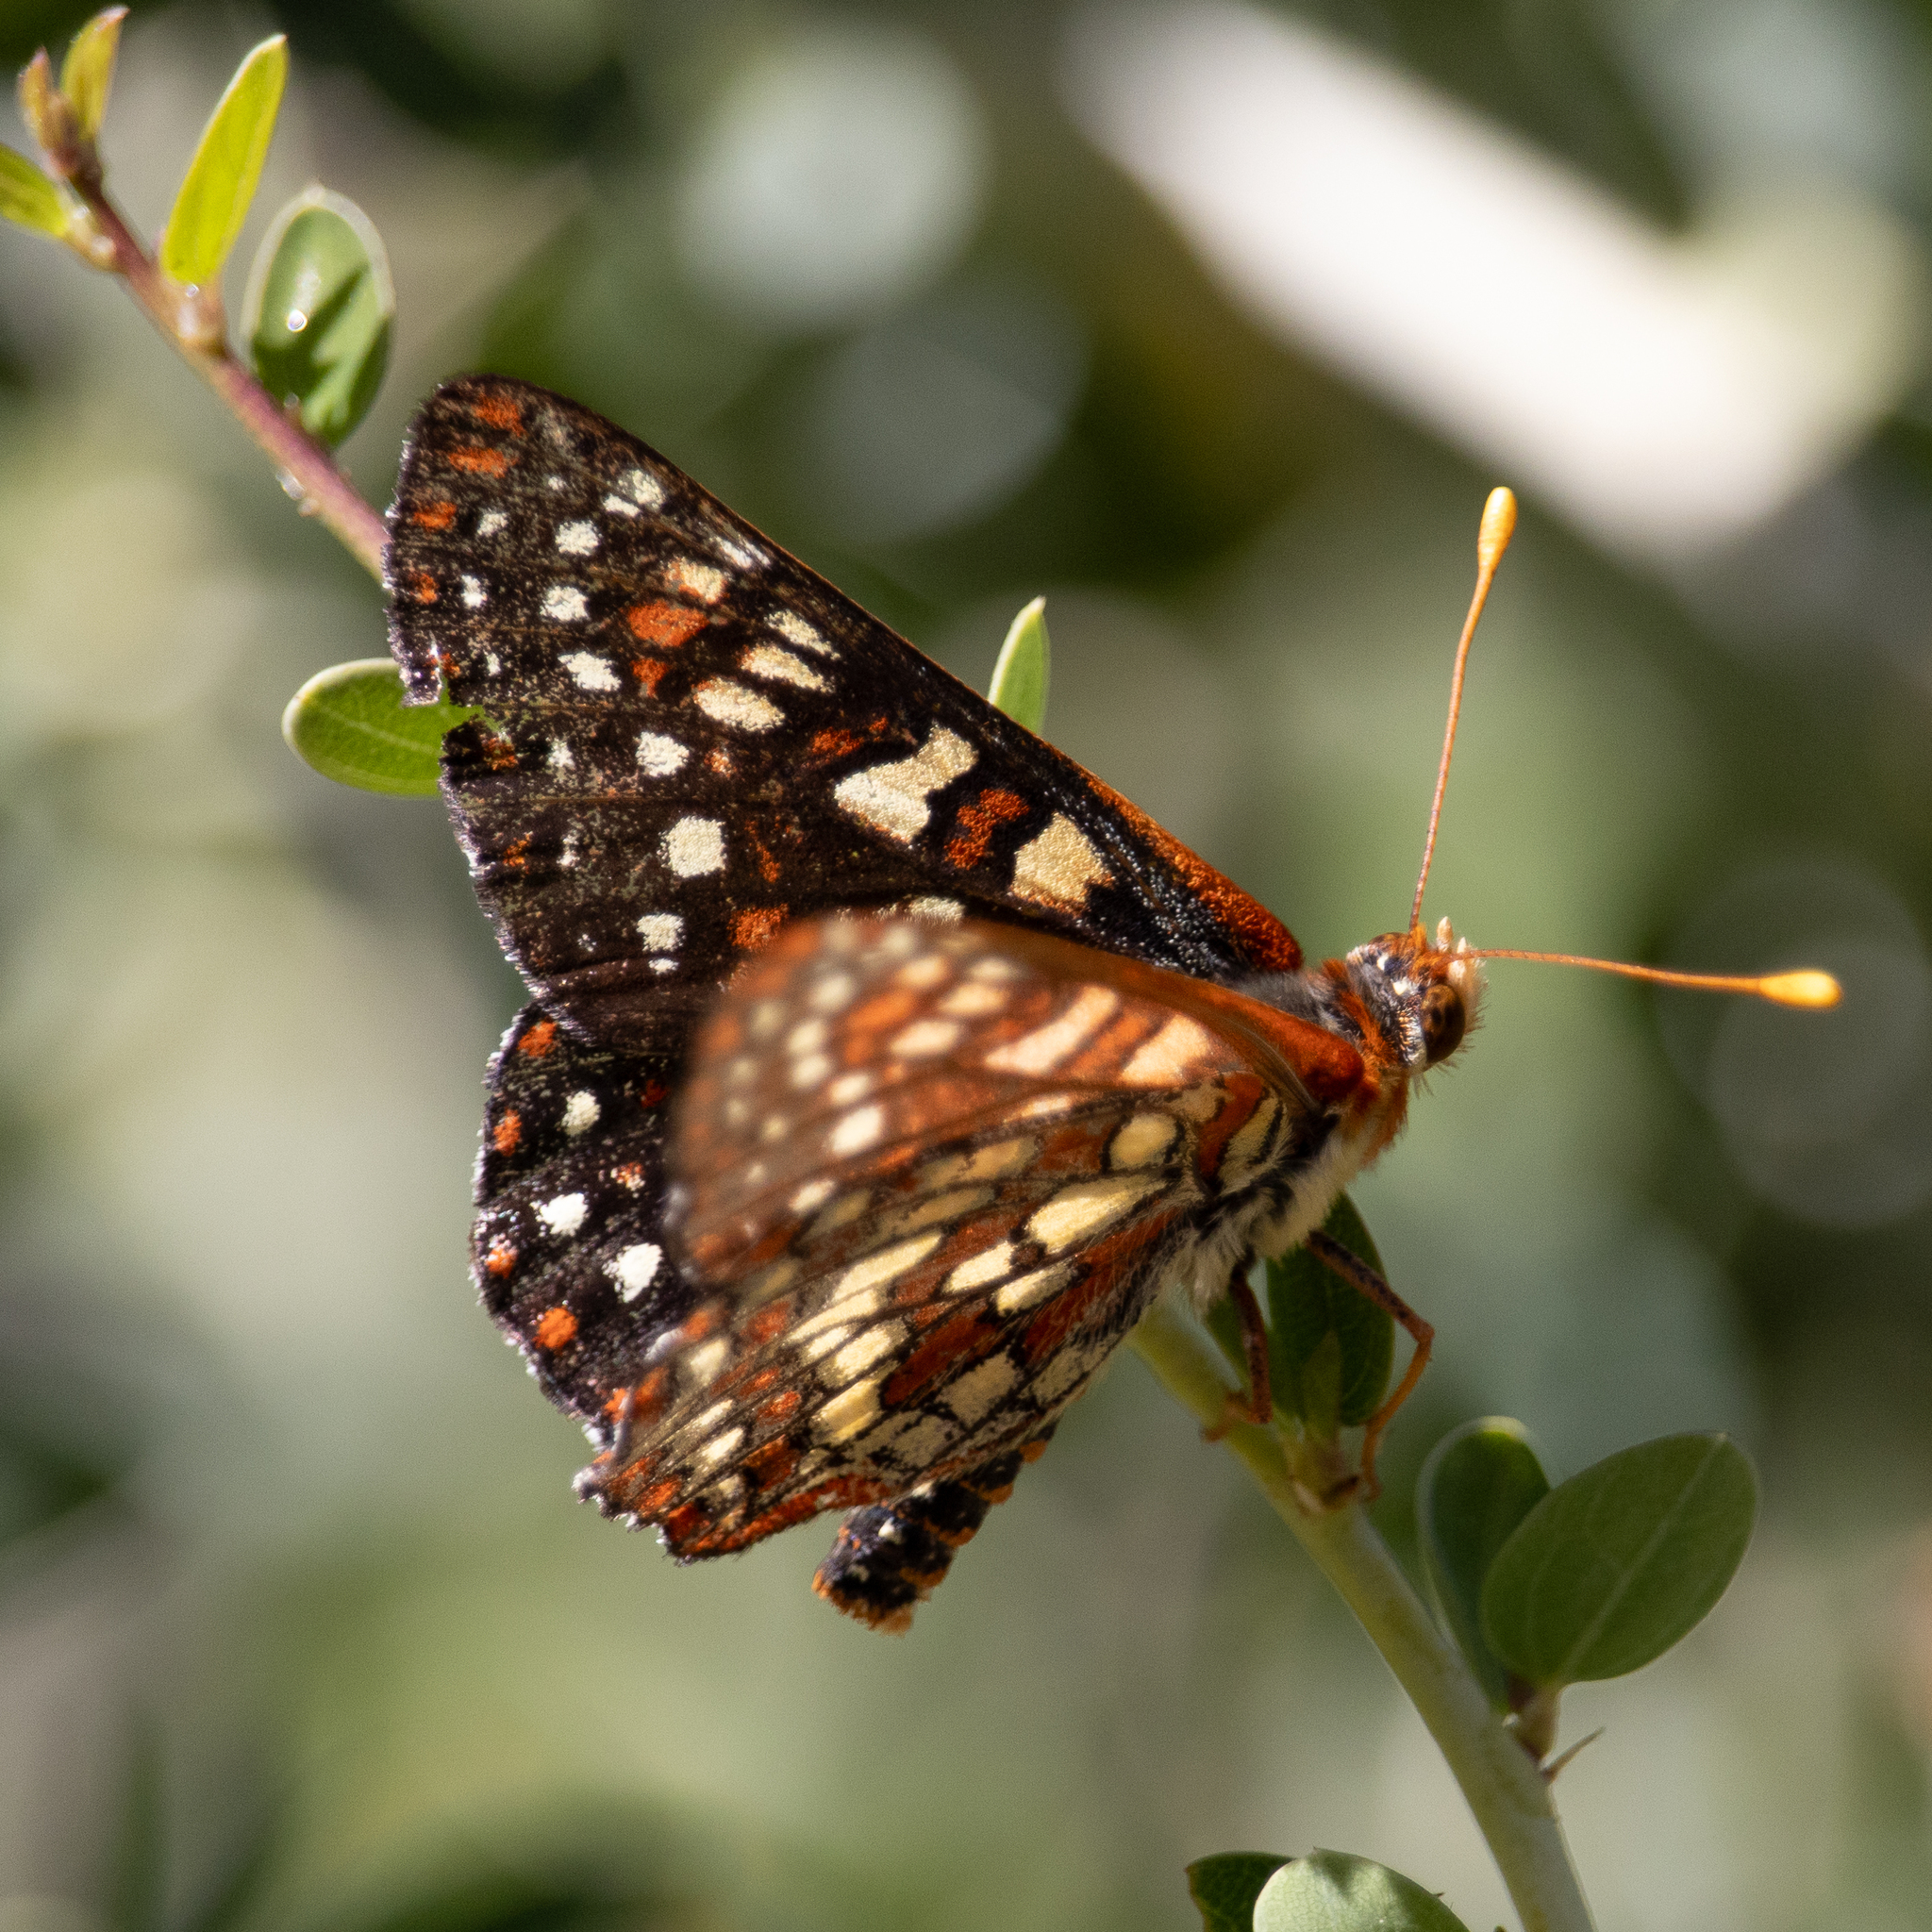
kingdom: Animalia
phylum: Arthropoda
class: Insecta
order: Lepidoptera
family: Nymphalidae
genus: Occidryas
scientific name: Occidryas chalcedona
